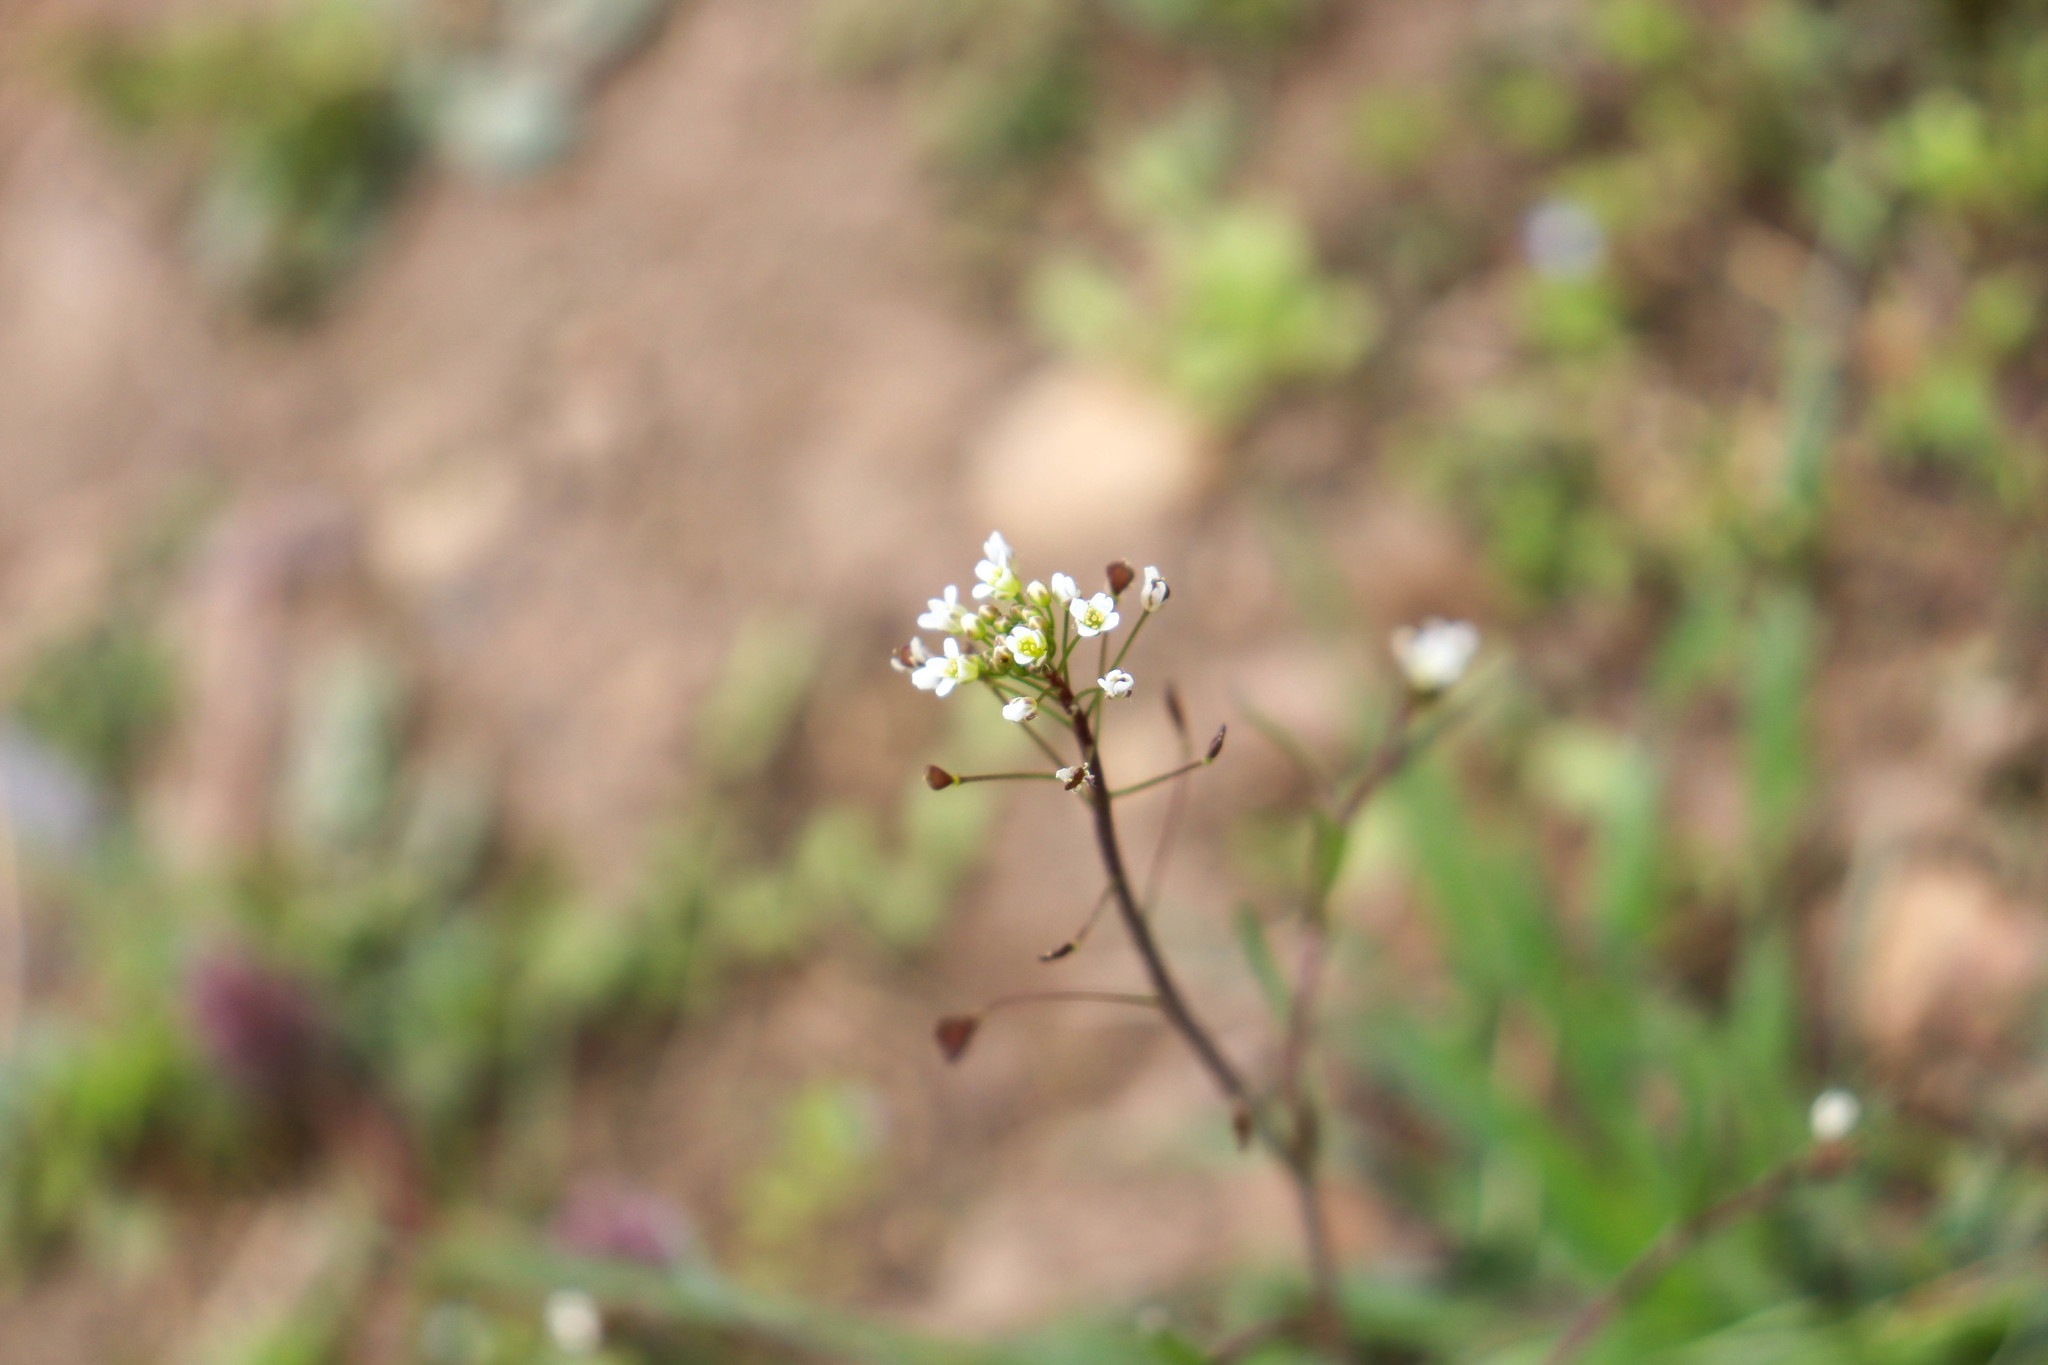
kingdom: Plantae
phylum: Tracheophyta
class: Magnoliopsida
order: Brassicales
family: Brassicaceae
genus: Capsella
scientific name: Capsella bursa-pastoris
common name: Shepherd's purse
